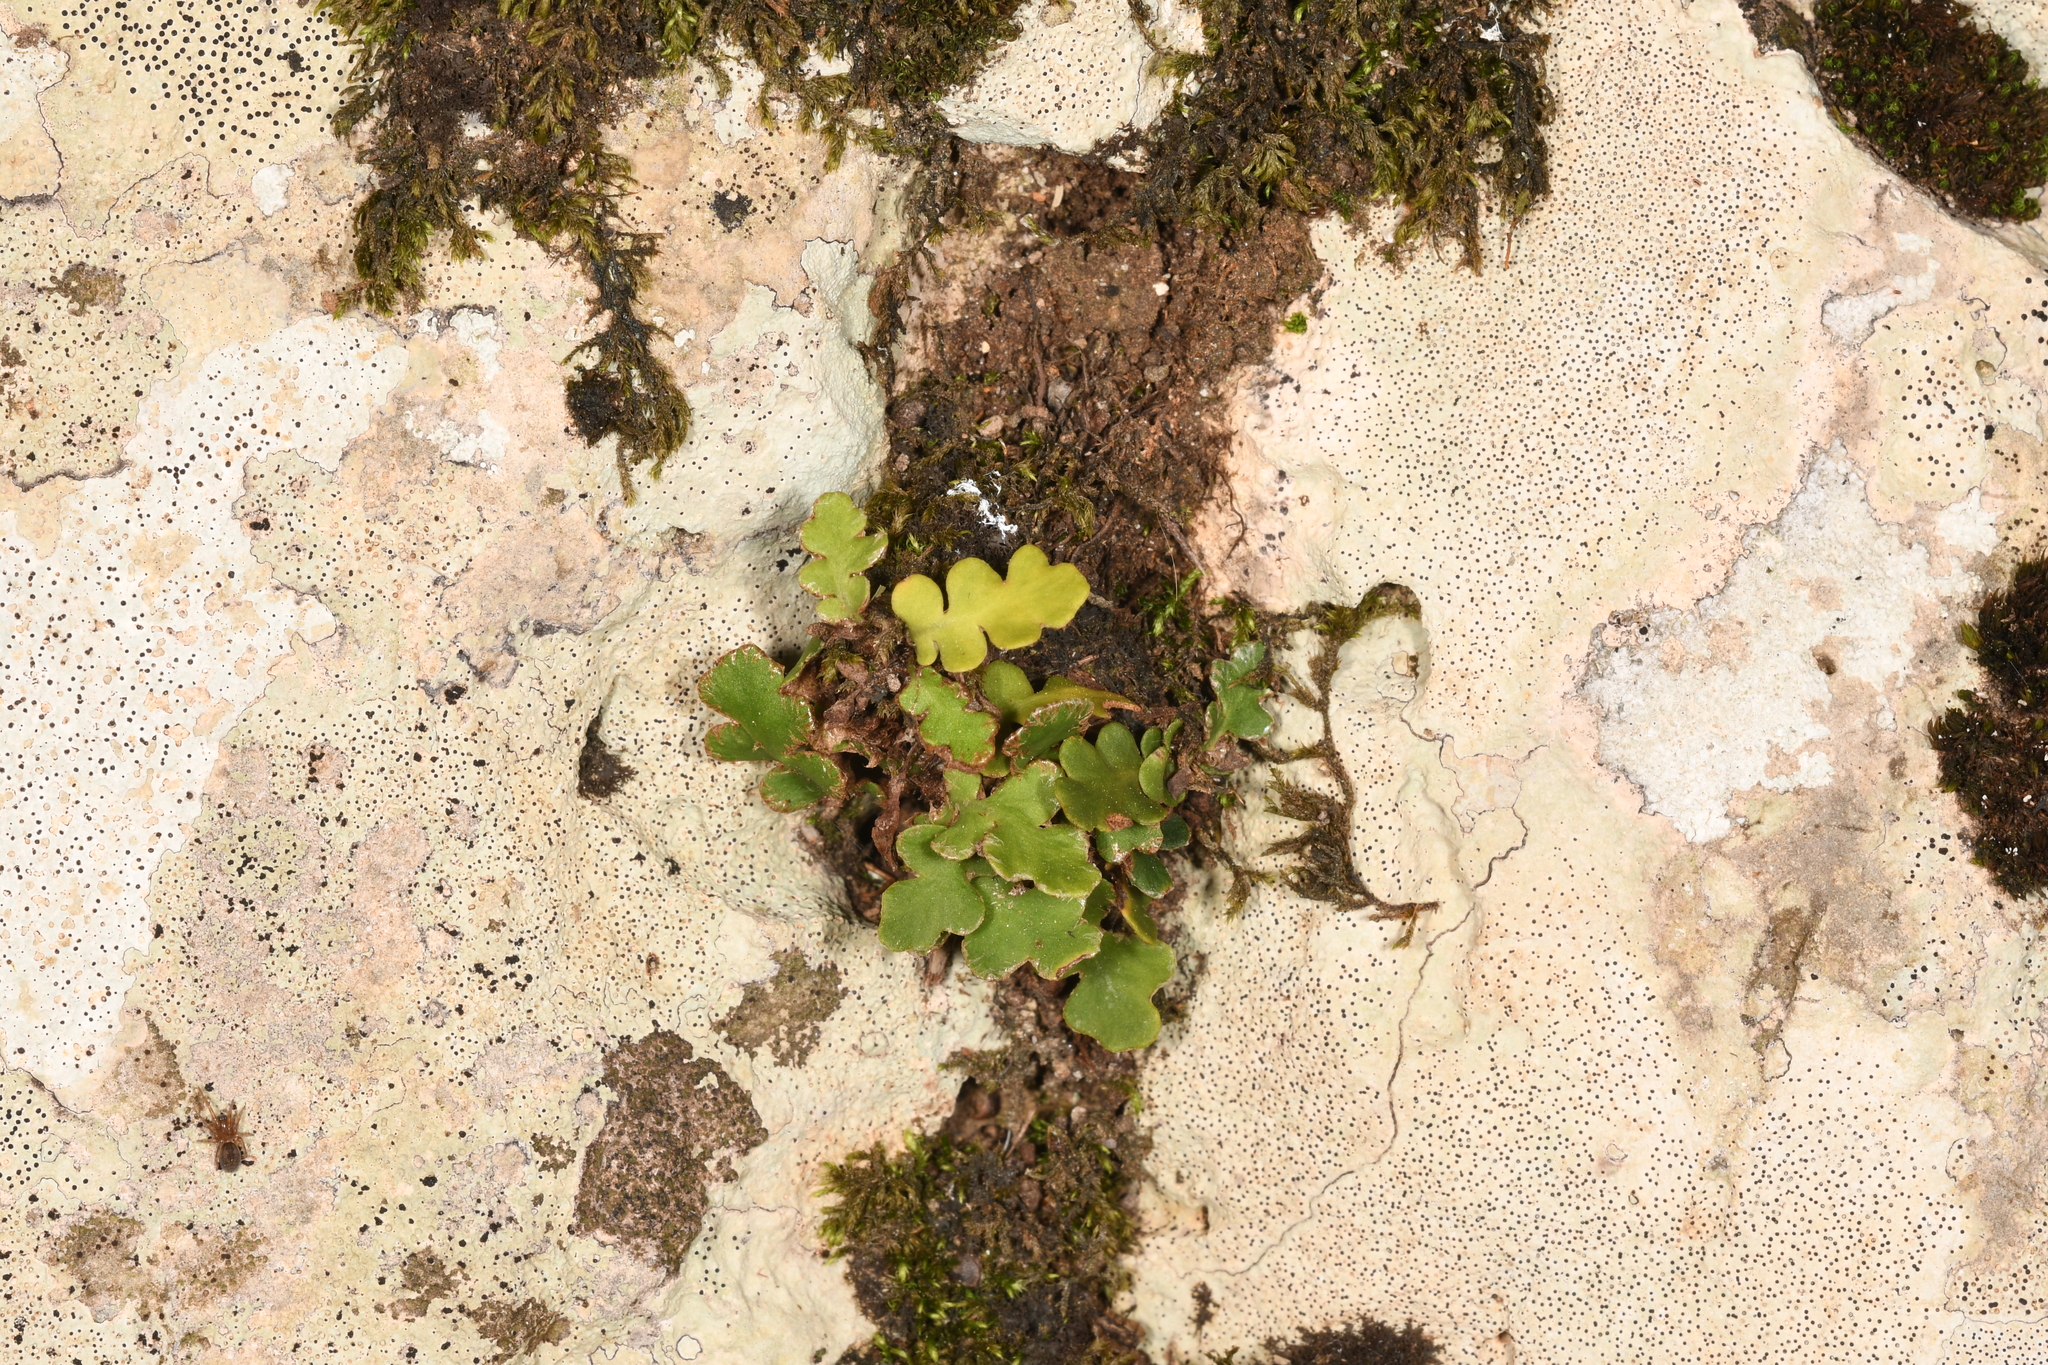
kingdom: Plantae
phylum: Tracheophyta
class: Polypodiopsida
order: Polypodiales
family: Aspleniaceae
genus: Asplenium
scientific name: Asplenium ceterach
